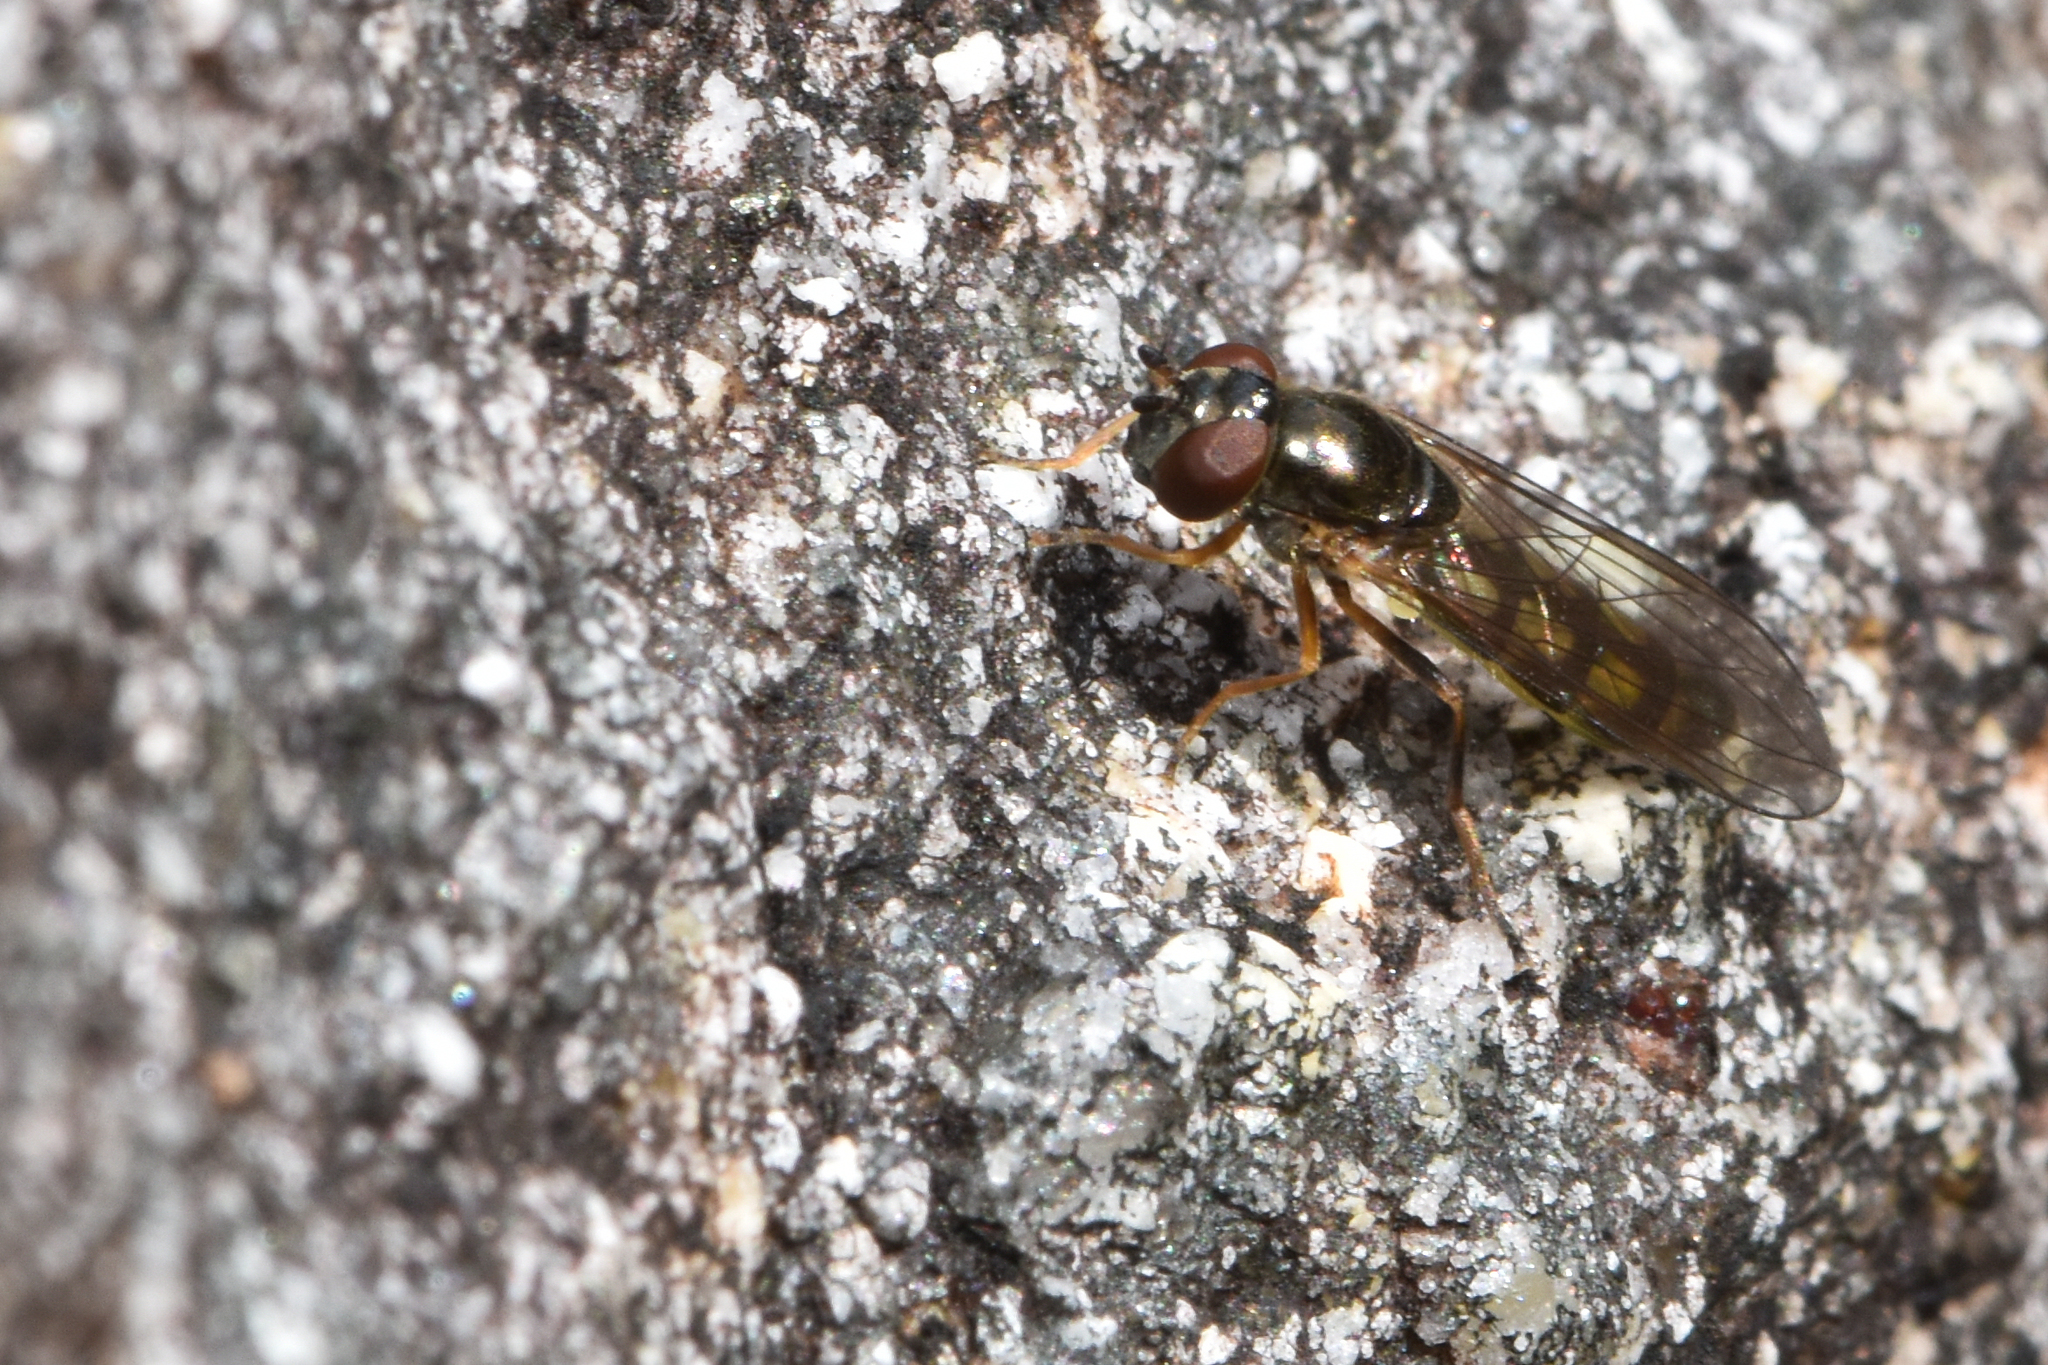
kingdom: Animalia
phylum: Arthropoda
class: Insecta
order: Diptera
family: Syrphidae
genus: Melanostoma
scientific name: Melanostoma mellina
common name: Hover fly
